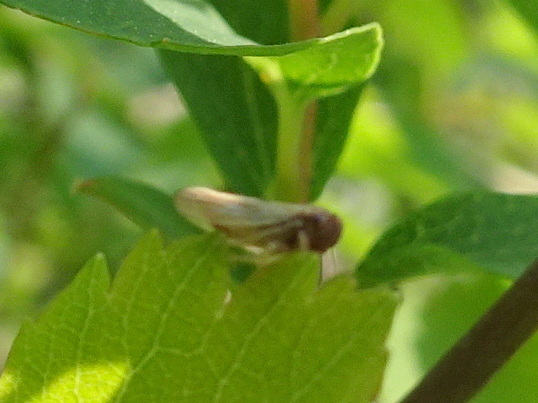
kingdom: Animalia
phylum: Arthropoda
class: Insecta
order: Hemiptera
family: Cicadellidae
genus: Agalliopsis
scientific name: Agalliopsis ancistra
